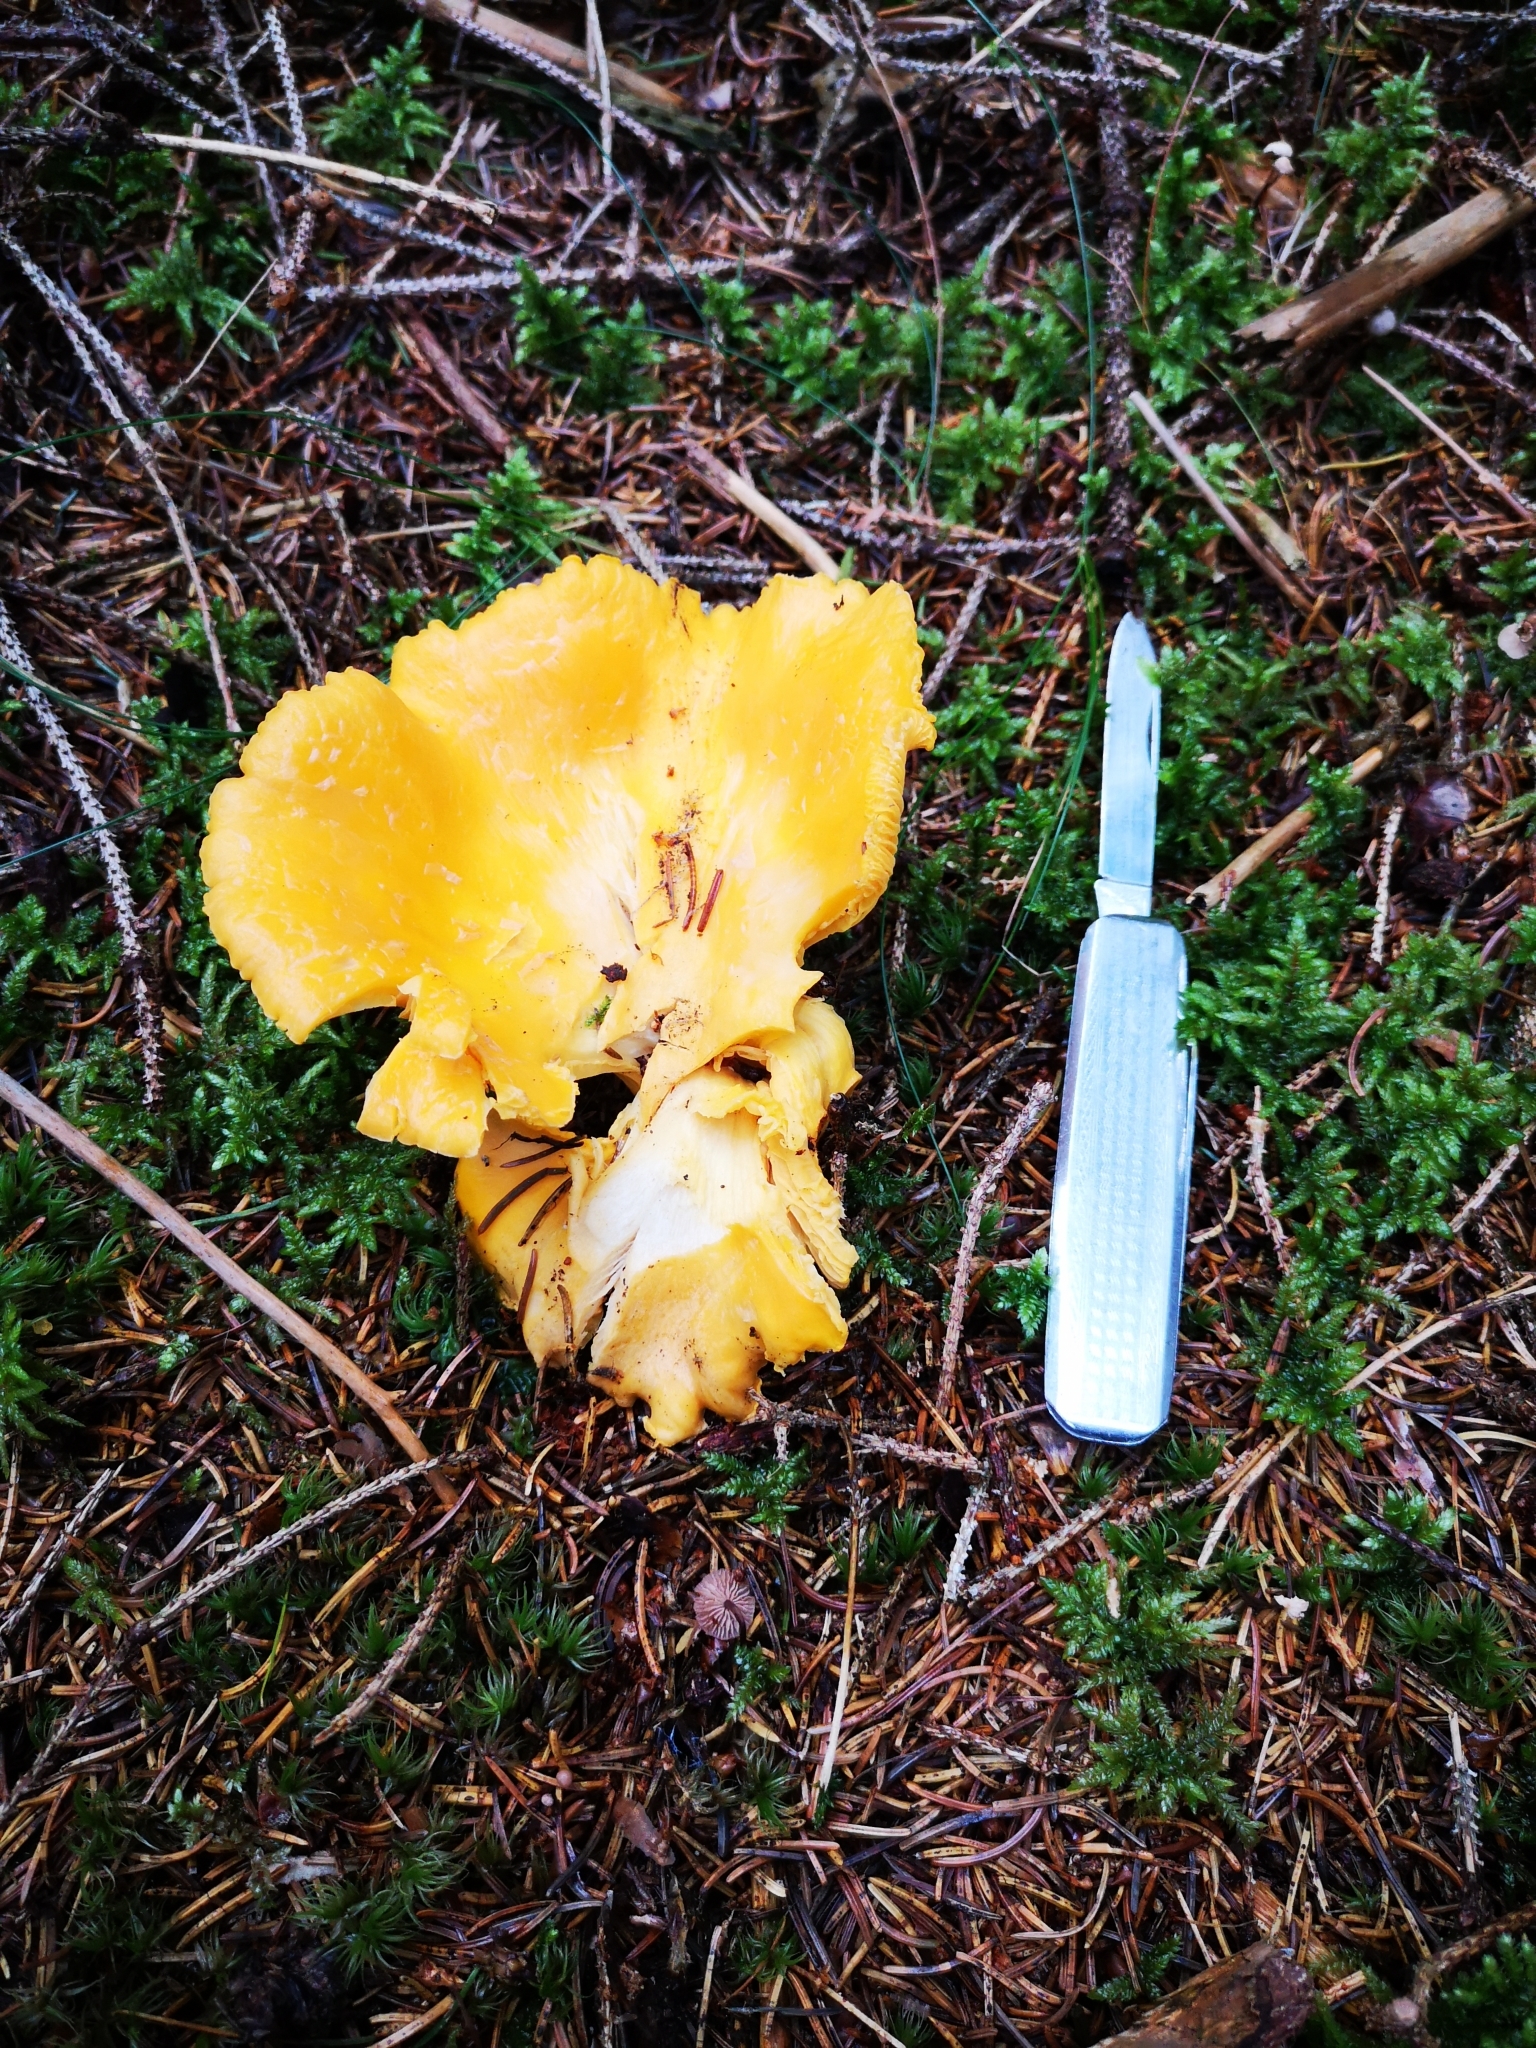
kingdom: Fungi
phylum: Basidiomycota
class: Agaricomycetes
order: Cantharellales
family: Hydnaceae
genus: Cantharellus
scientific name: Cantharellus cibarius
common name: Chanterelle
